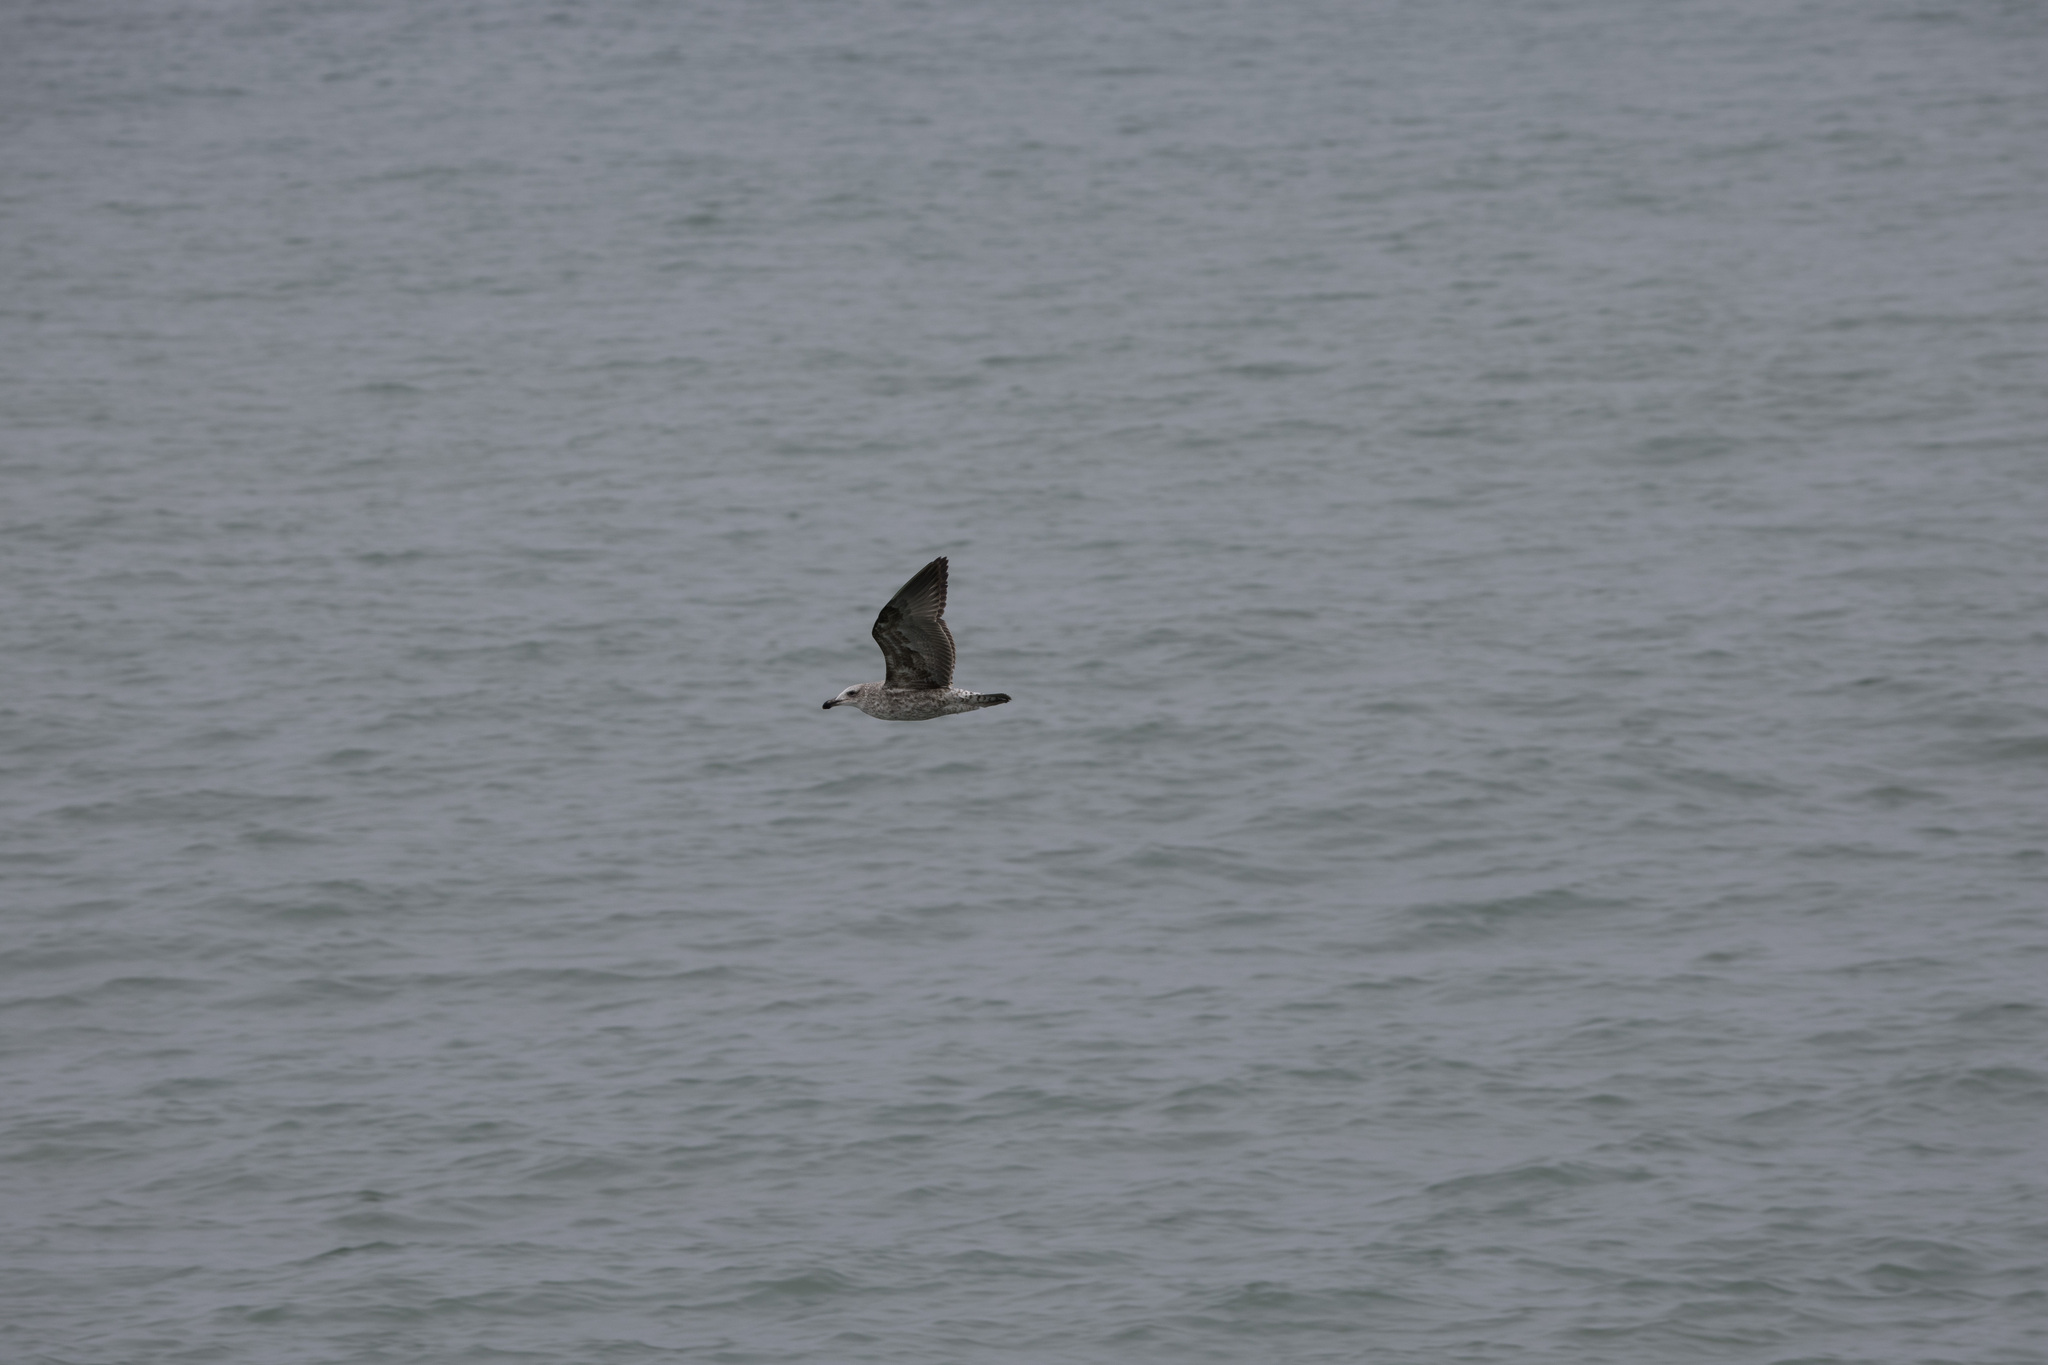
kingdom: Animalia
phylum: Chordata
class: Aves
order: Charadriiformes
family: Laridae
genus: Larus
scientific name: Larus belcheri
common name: Belcher's gull
